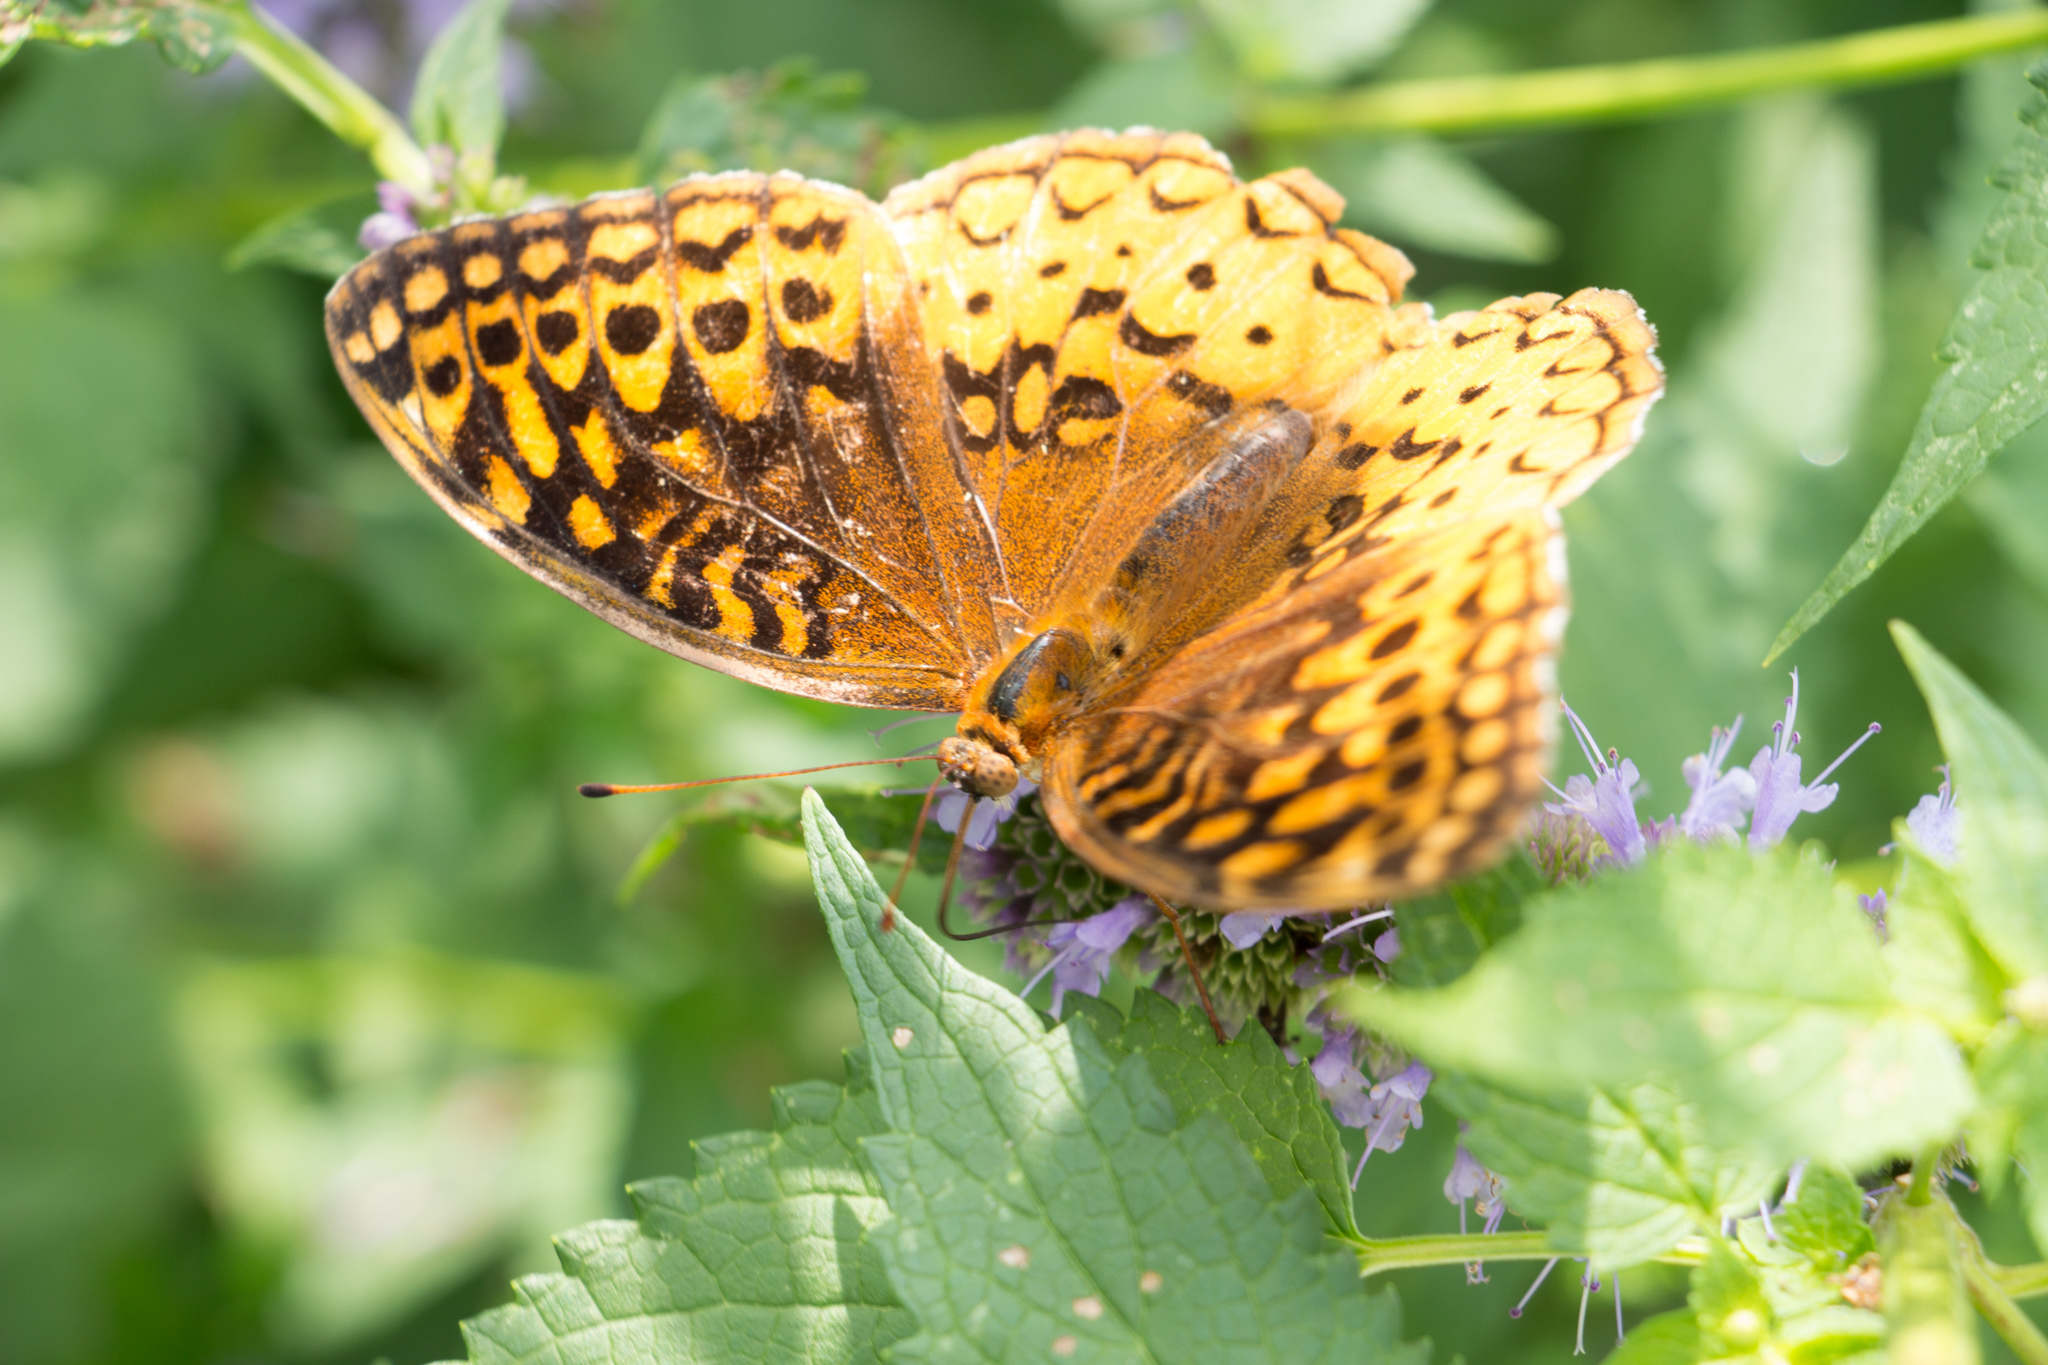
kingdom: Animalia
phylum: Arthropoda
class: Insecta
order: Lepidoptera
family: Nymphalidae
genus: Speyeria
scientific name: Speyeria cybele
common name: Great spangled fritillary
